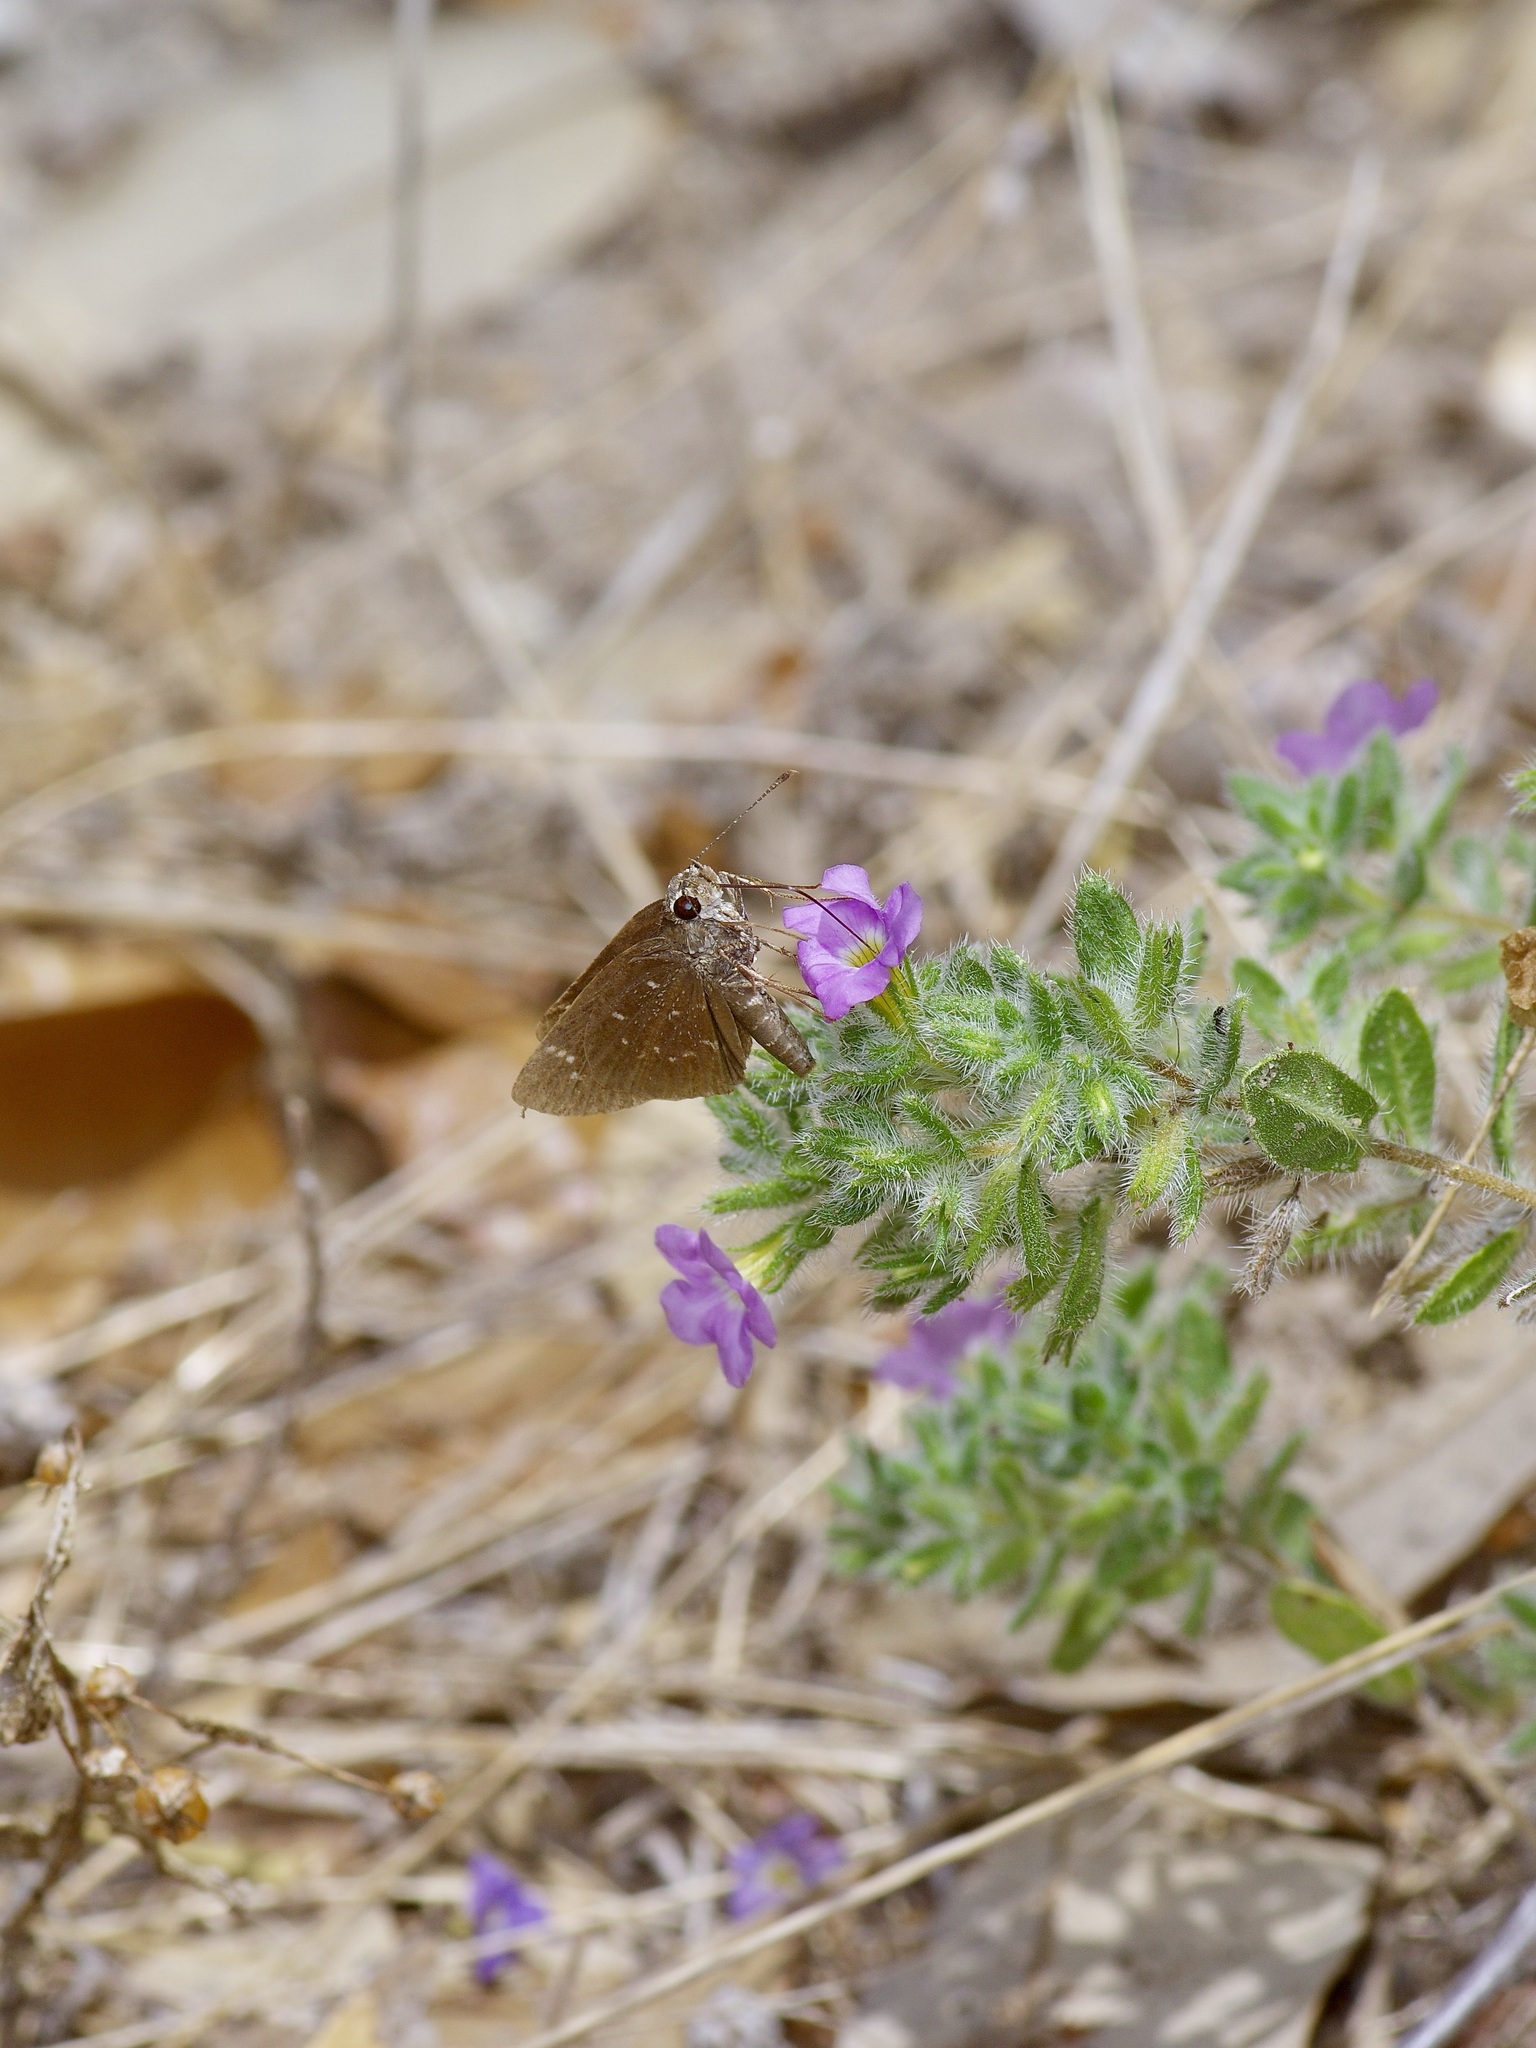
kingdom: Animalia
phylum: Arthropoda
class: Insecta
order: Lepidoptera
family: Hesperiidae
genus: Mastor
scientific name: Mastor celia
